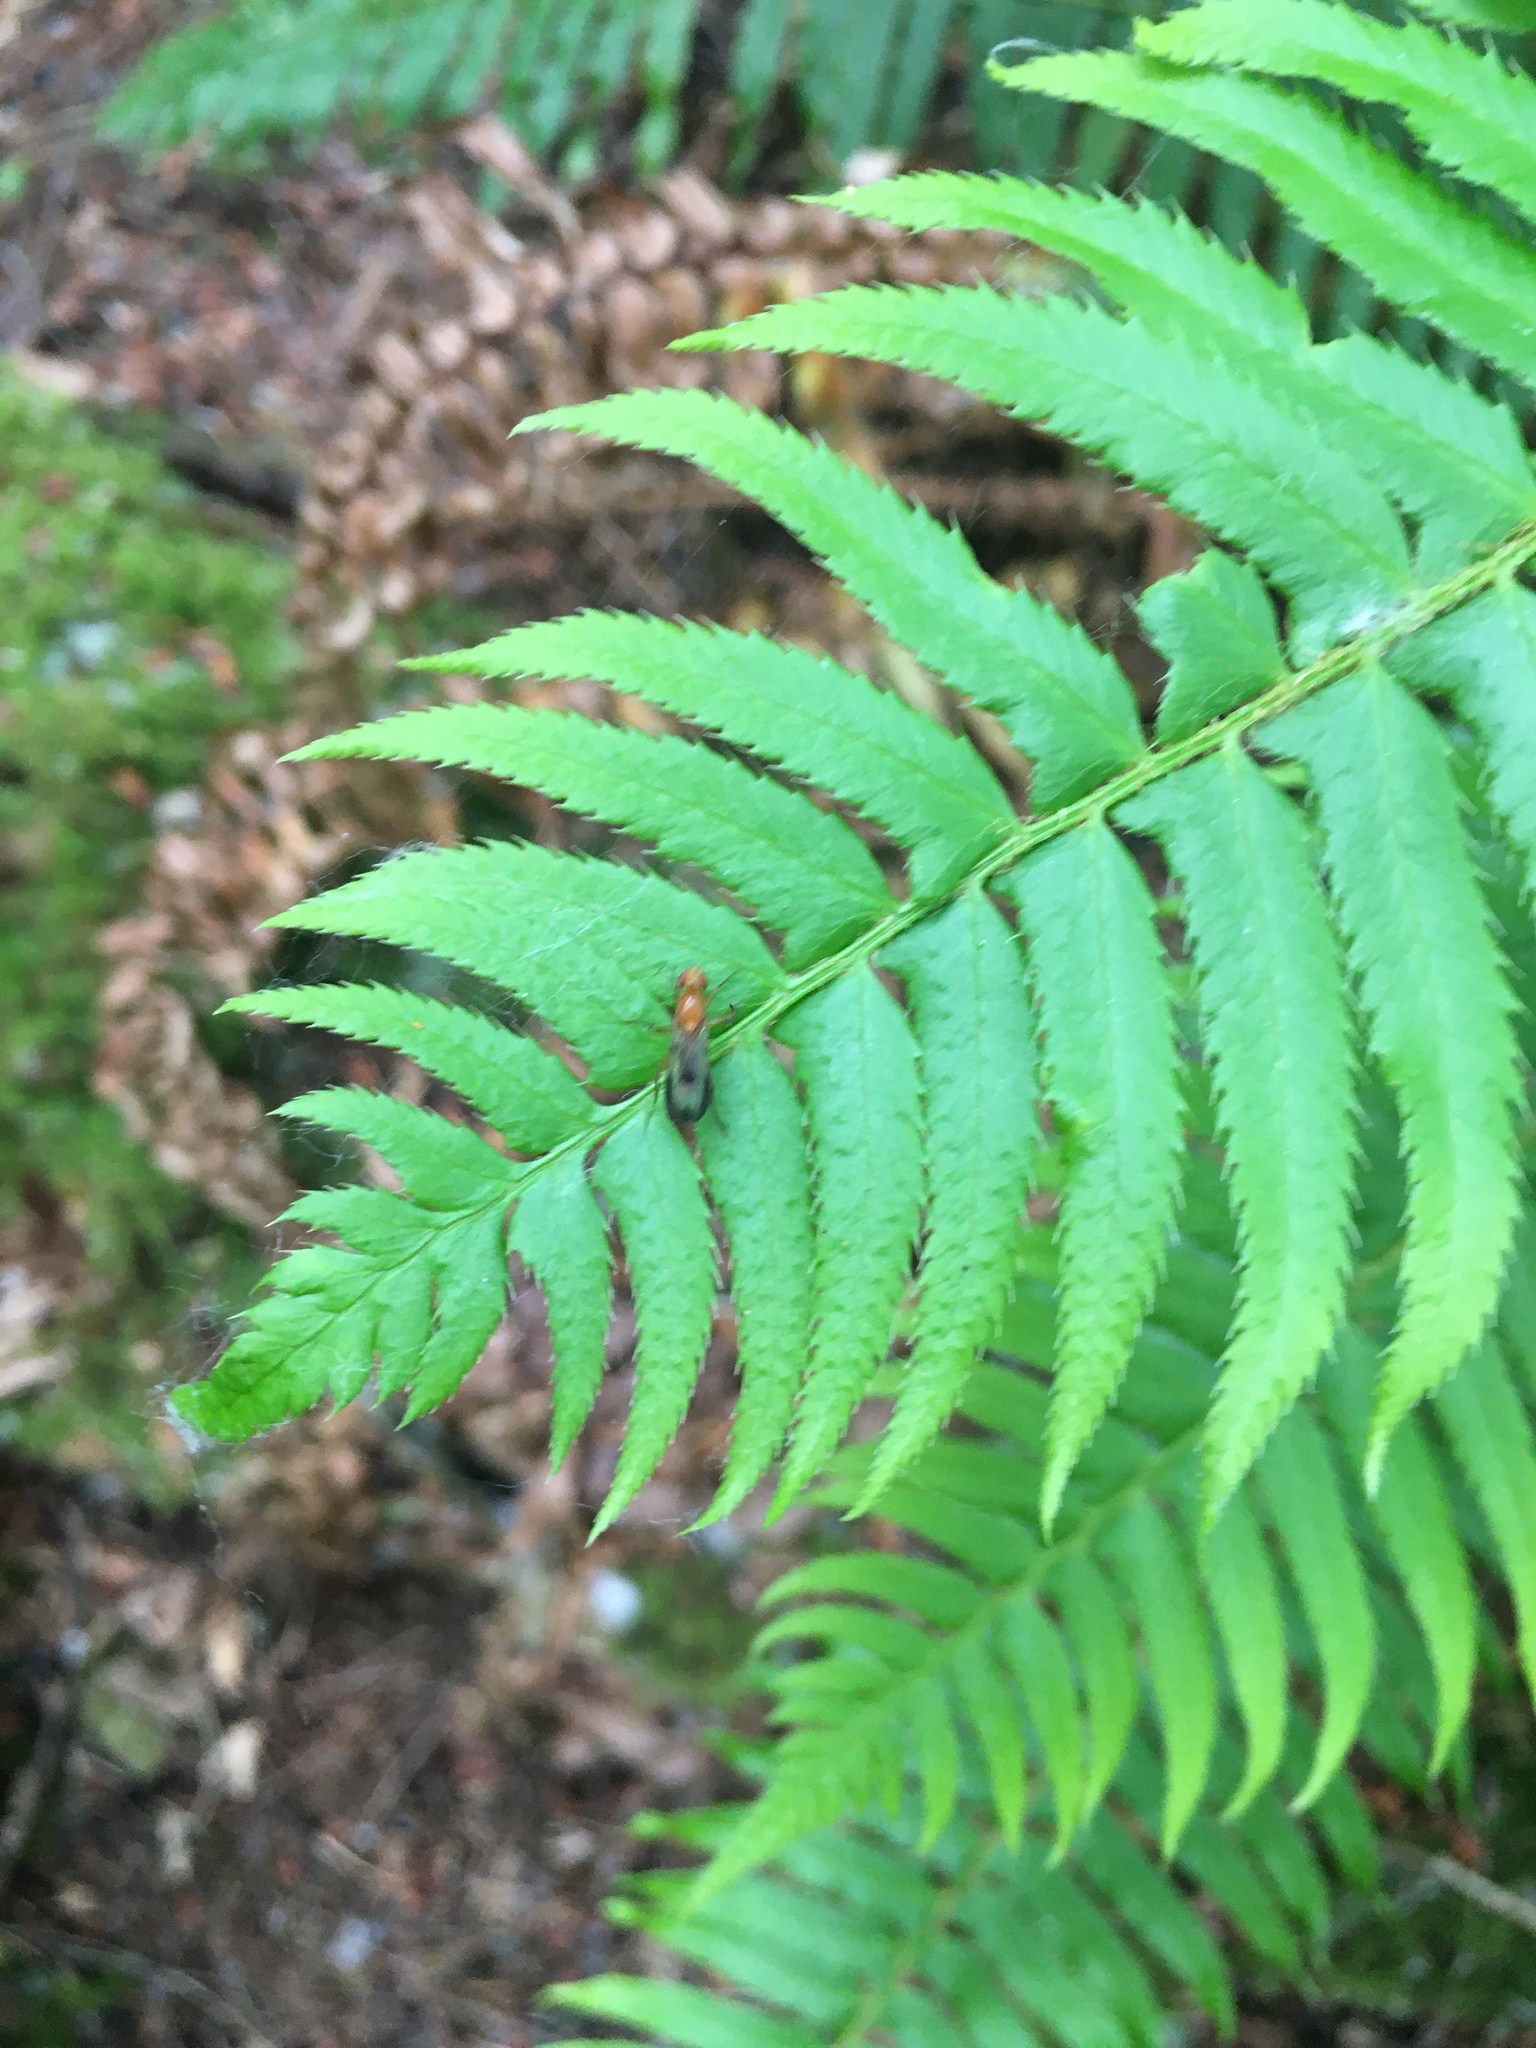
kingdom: Plantae
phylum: Tracheophyta
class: Polypodiopsida
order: Polypodiales
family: Dryopteridaceae
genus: Polystichum
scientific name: Polystichum munitum
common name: Western sword-fern
